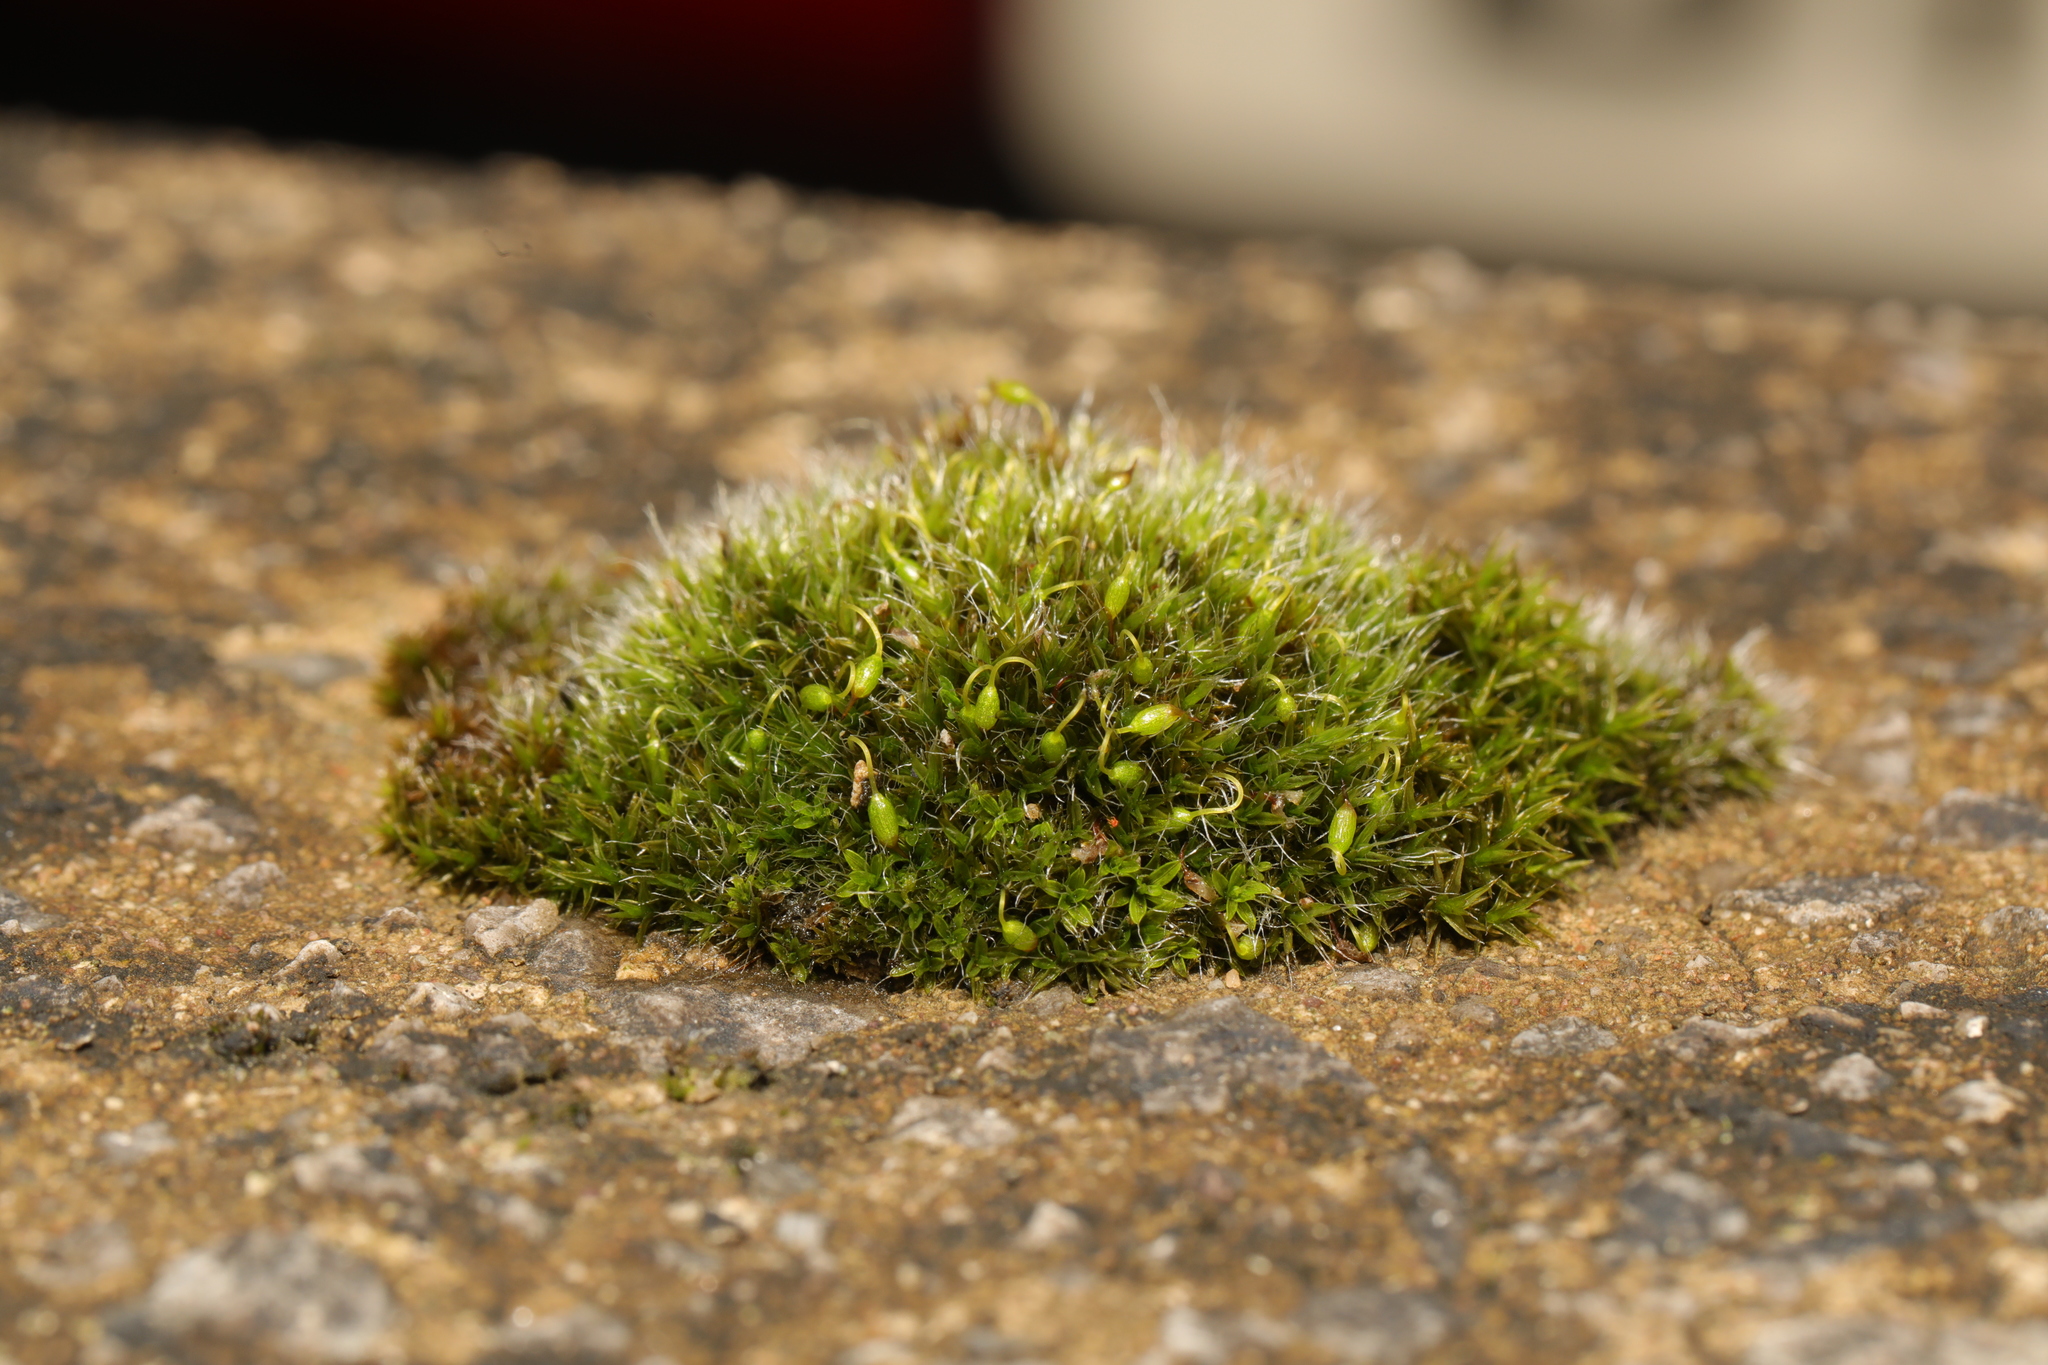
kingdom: Plantae
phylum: Bryophyta
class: Bryopsida
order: Grimmiales
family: Grimmiaceae
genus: Grimmia
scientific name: Grimmia pulvinata
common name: Grey-cushioned grimmia
